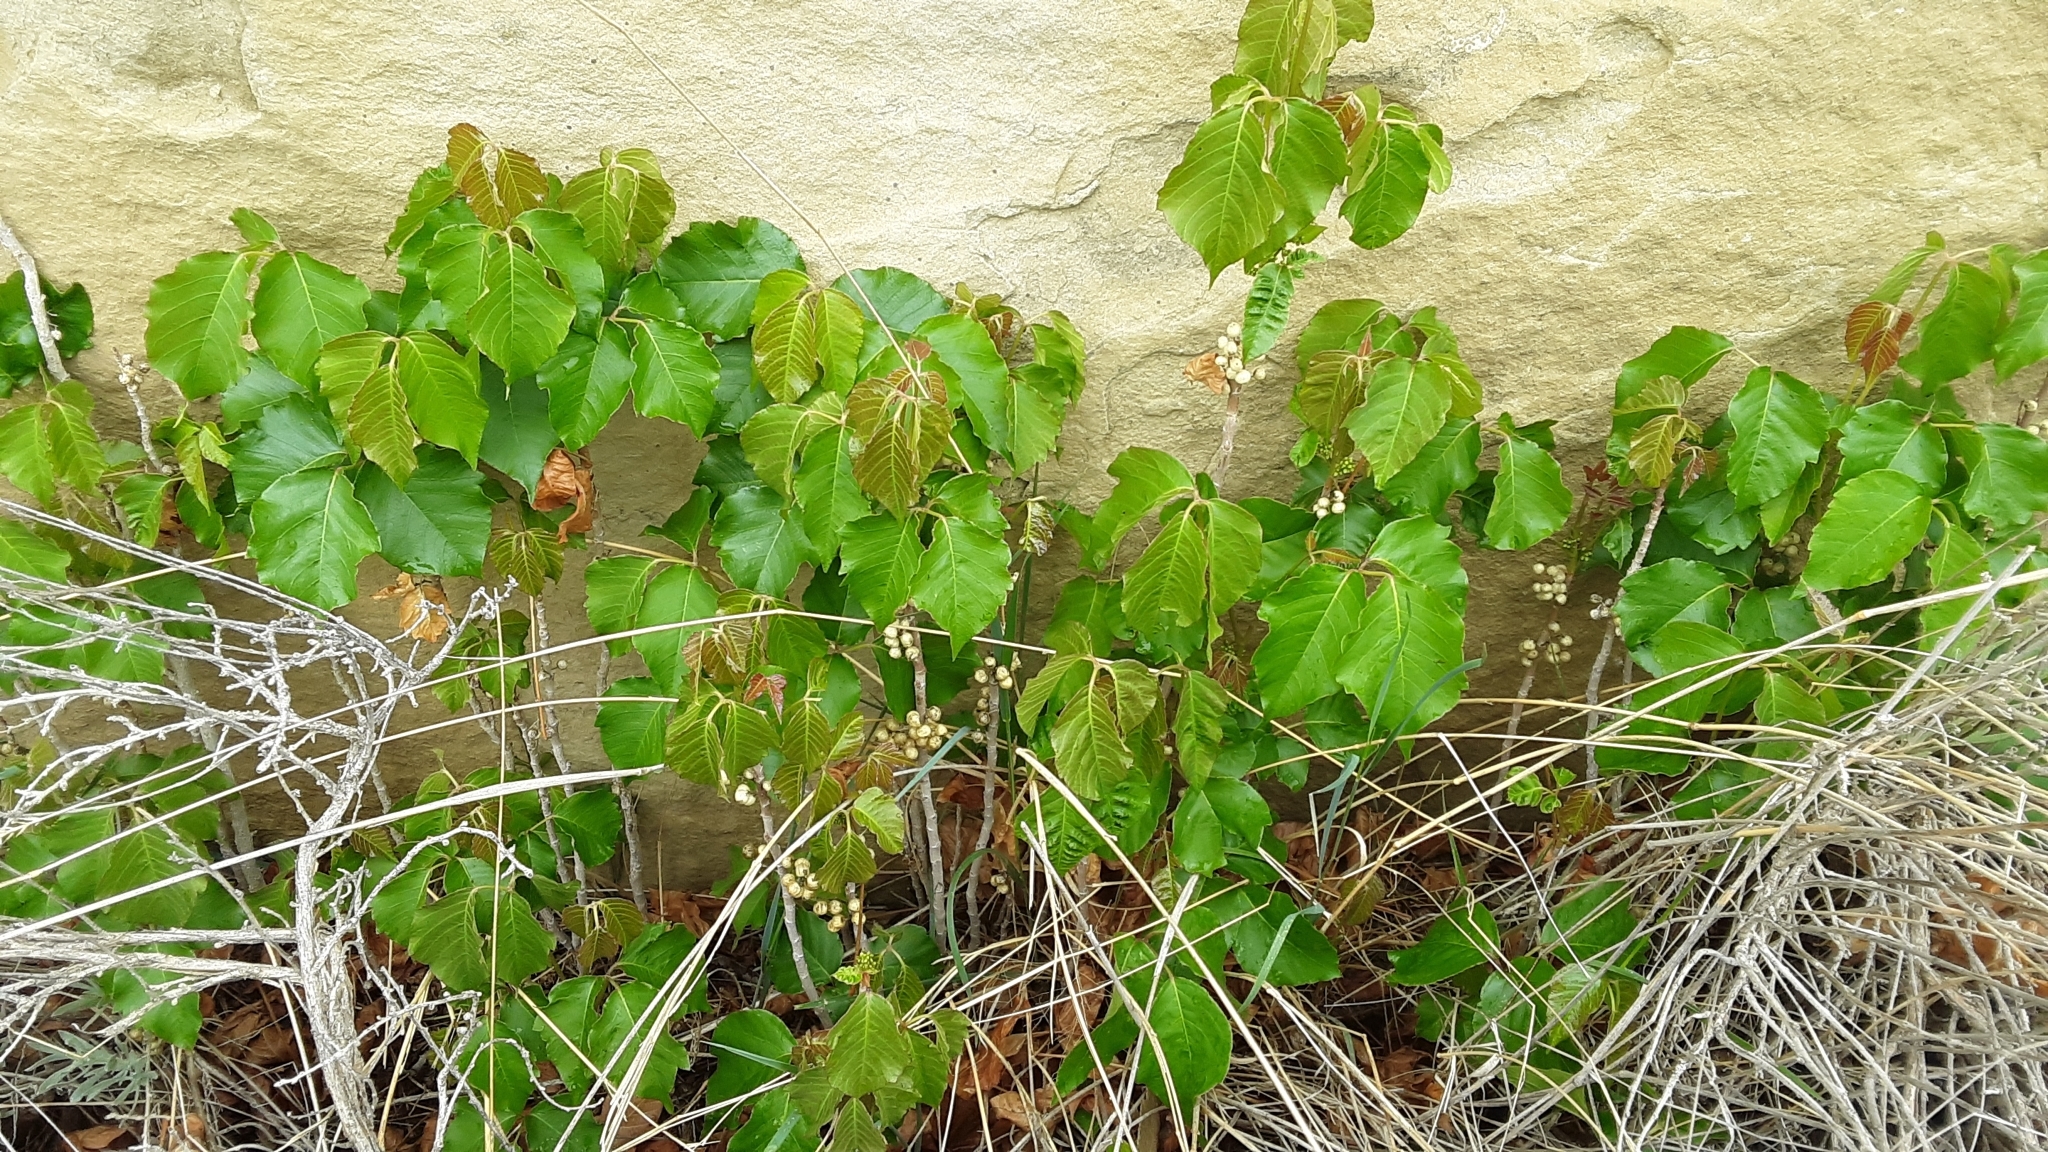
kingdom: Plantae
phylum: Tracheophyta
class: Magnoliopsida
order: Sapindales
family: Anacardiaceae
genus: Toxicodendron
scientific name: Toxicodendron rydbergii
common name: Rydberg's poison-ivy
